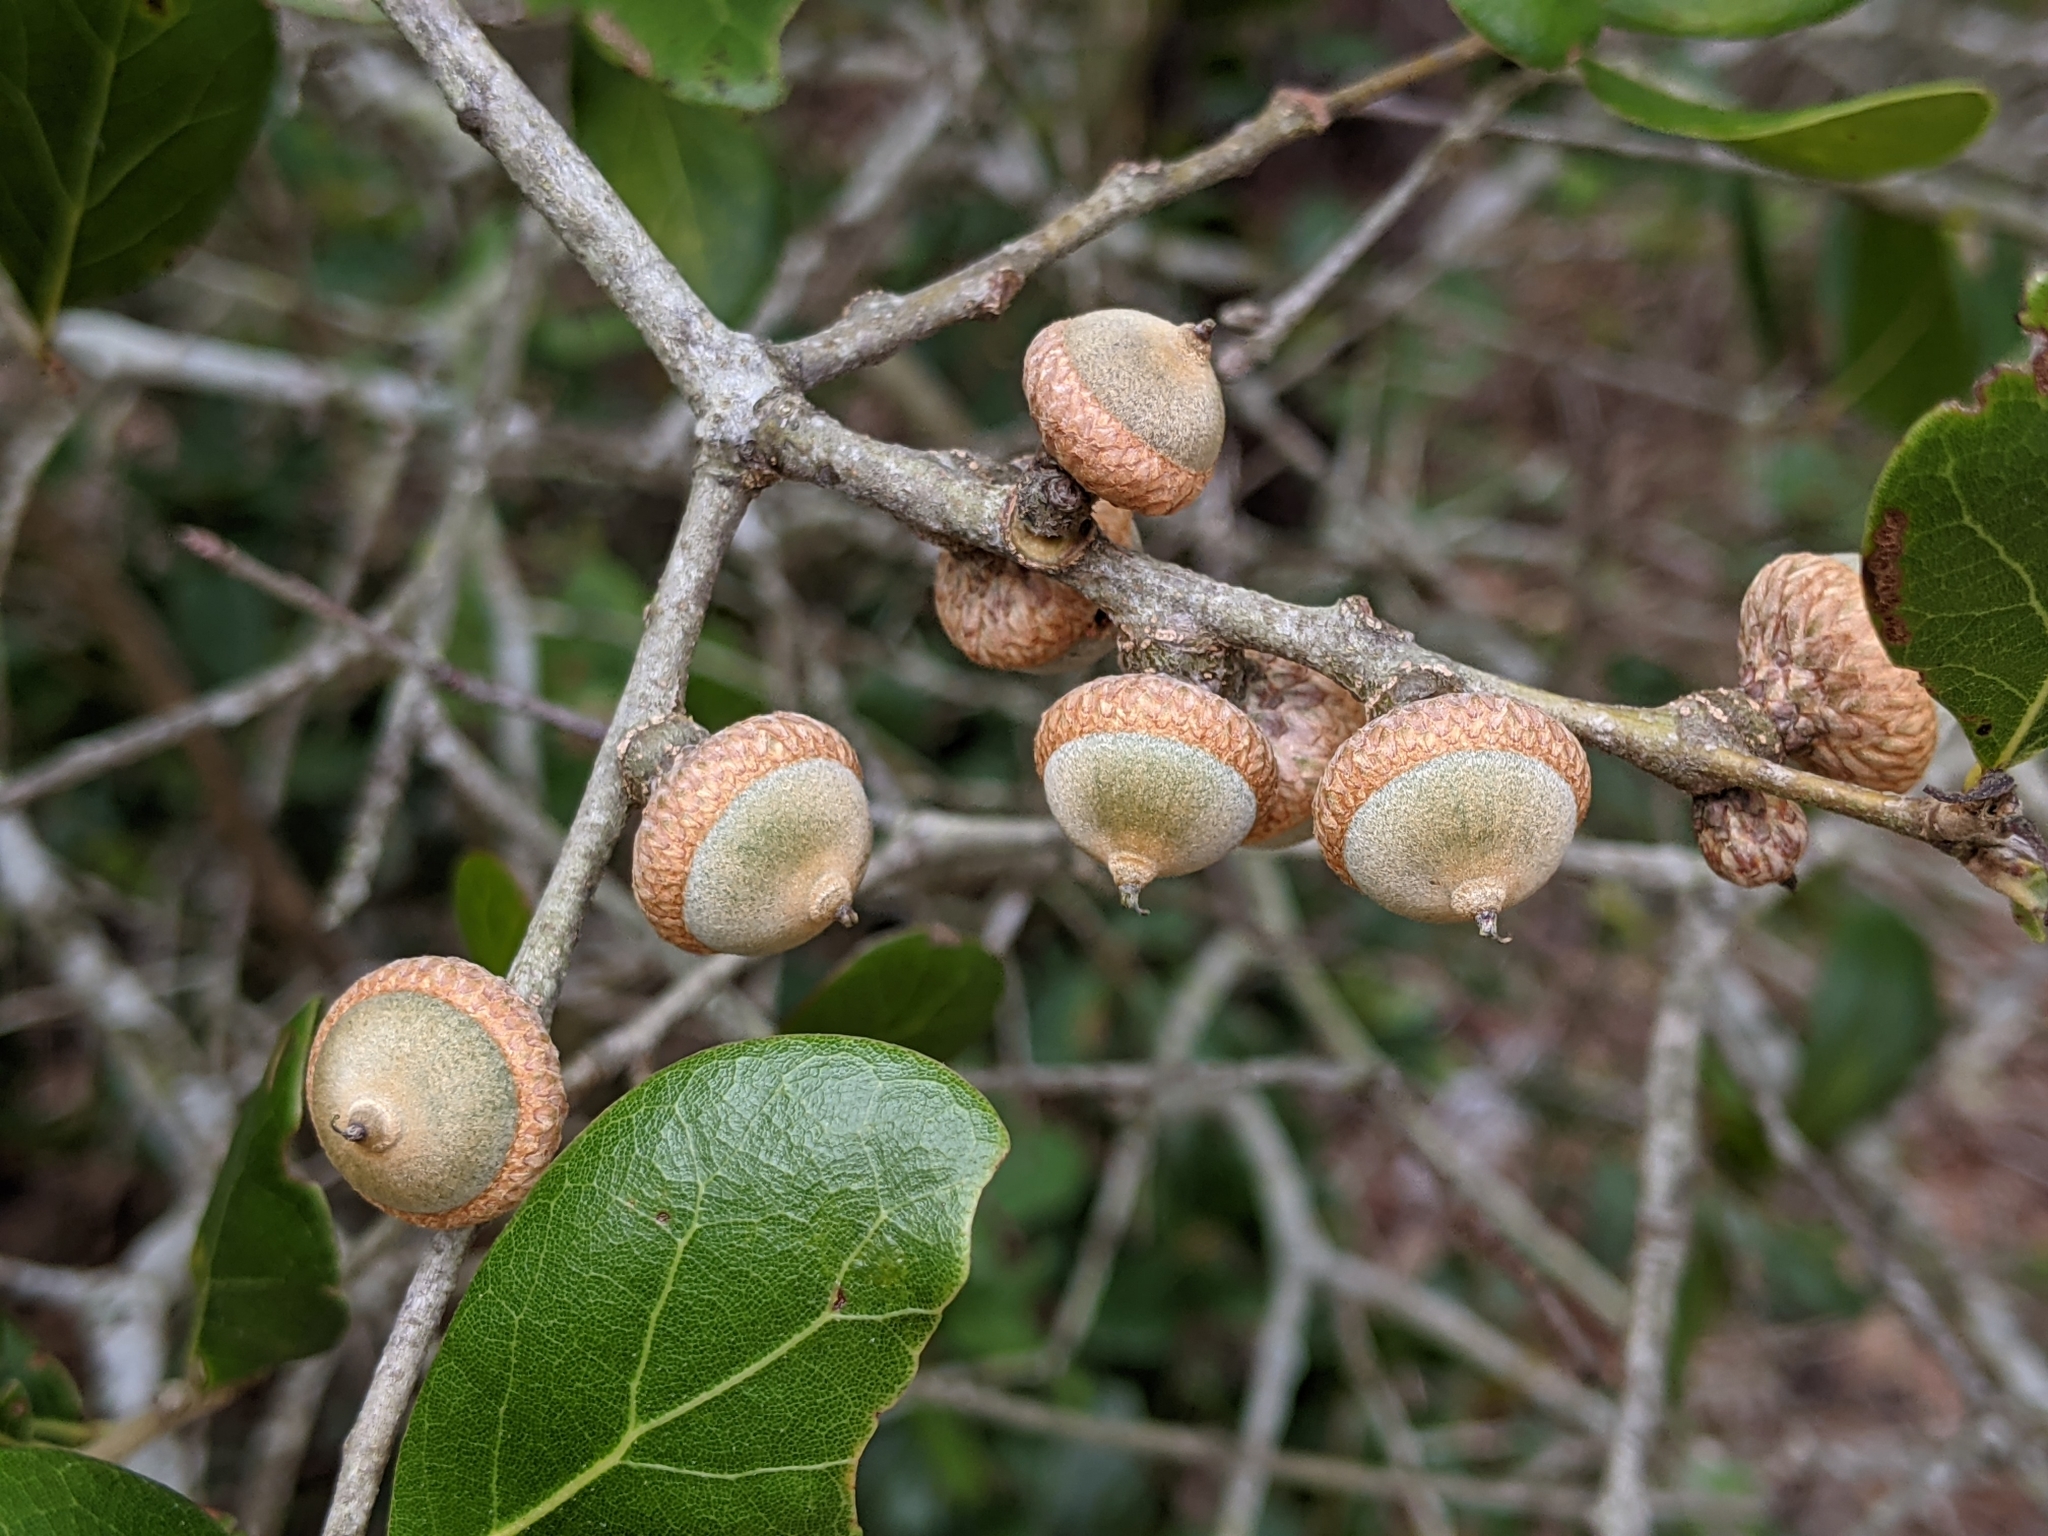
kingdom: Plantae
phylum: Tracheophyta
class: Magnoliopsida
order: Fagales
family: Fagaceae
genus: Quercus
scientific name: Quercus myrtifolia
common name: Myrtle oak
